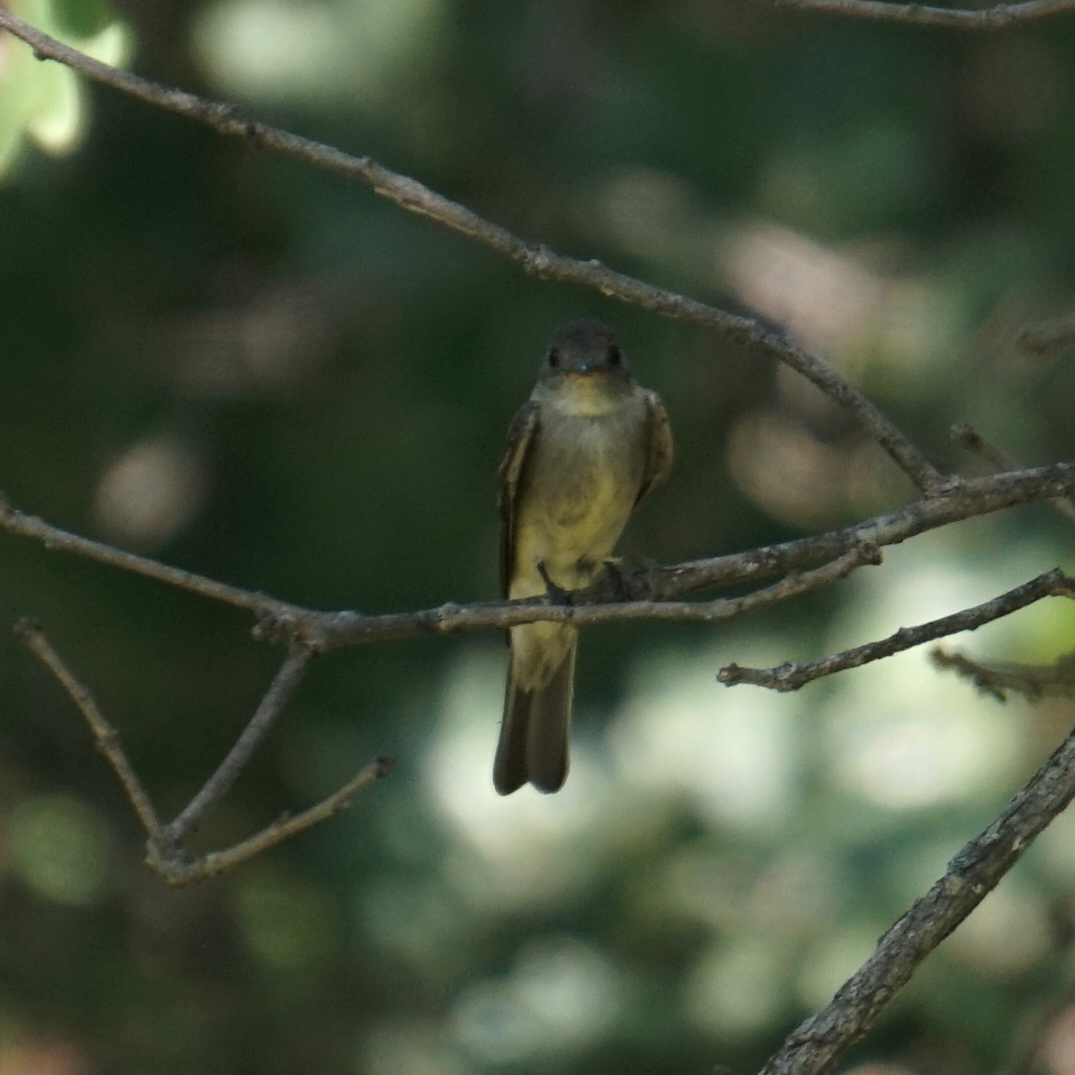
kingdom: Animalia
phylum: Chordata
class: Aves
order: Passeriformes
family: Tyrannidae
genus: Contopus
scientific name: Contopus virens
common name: Eastern wood-pewee
